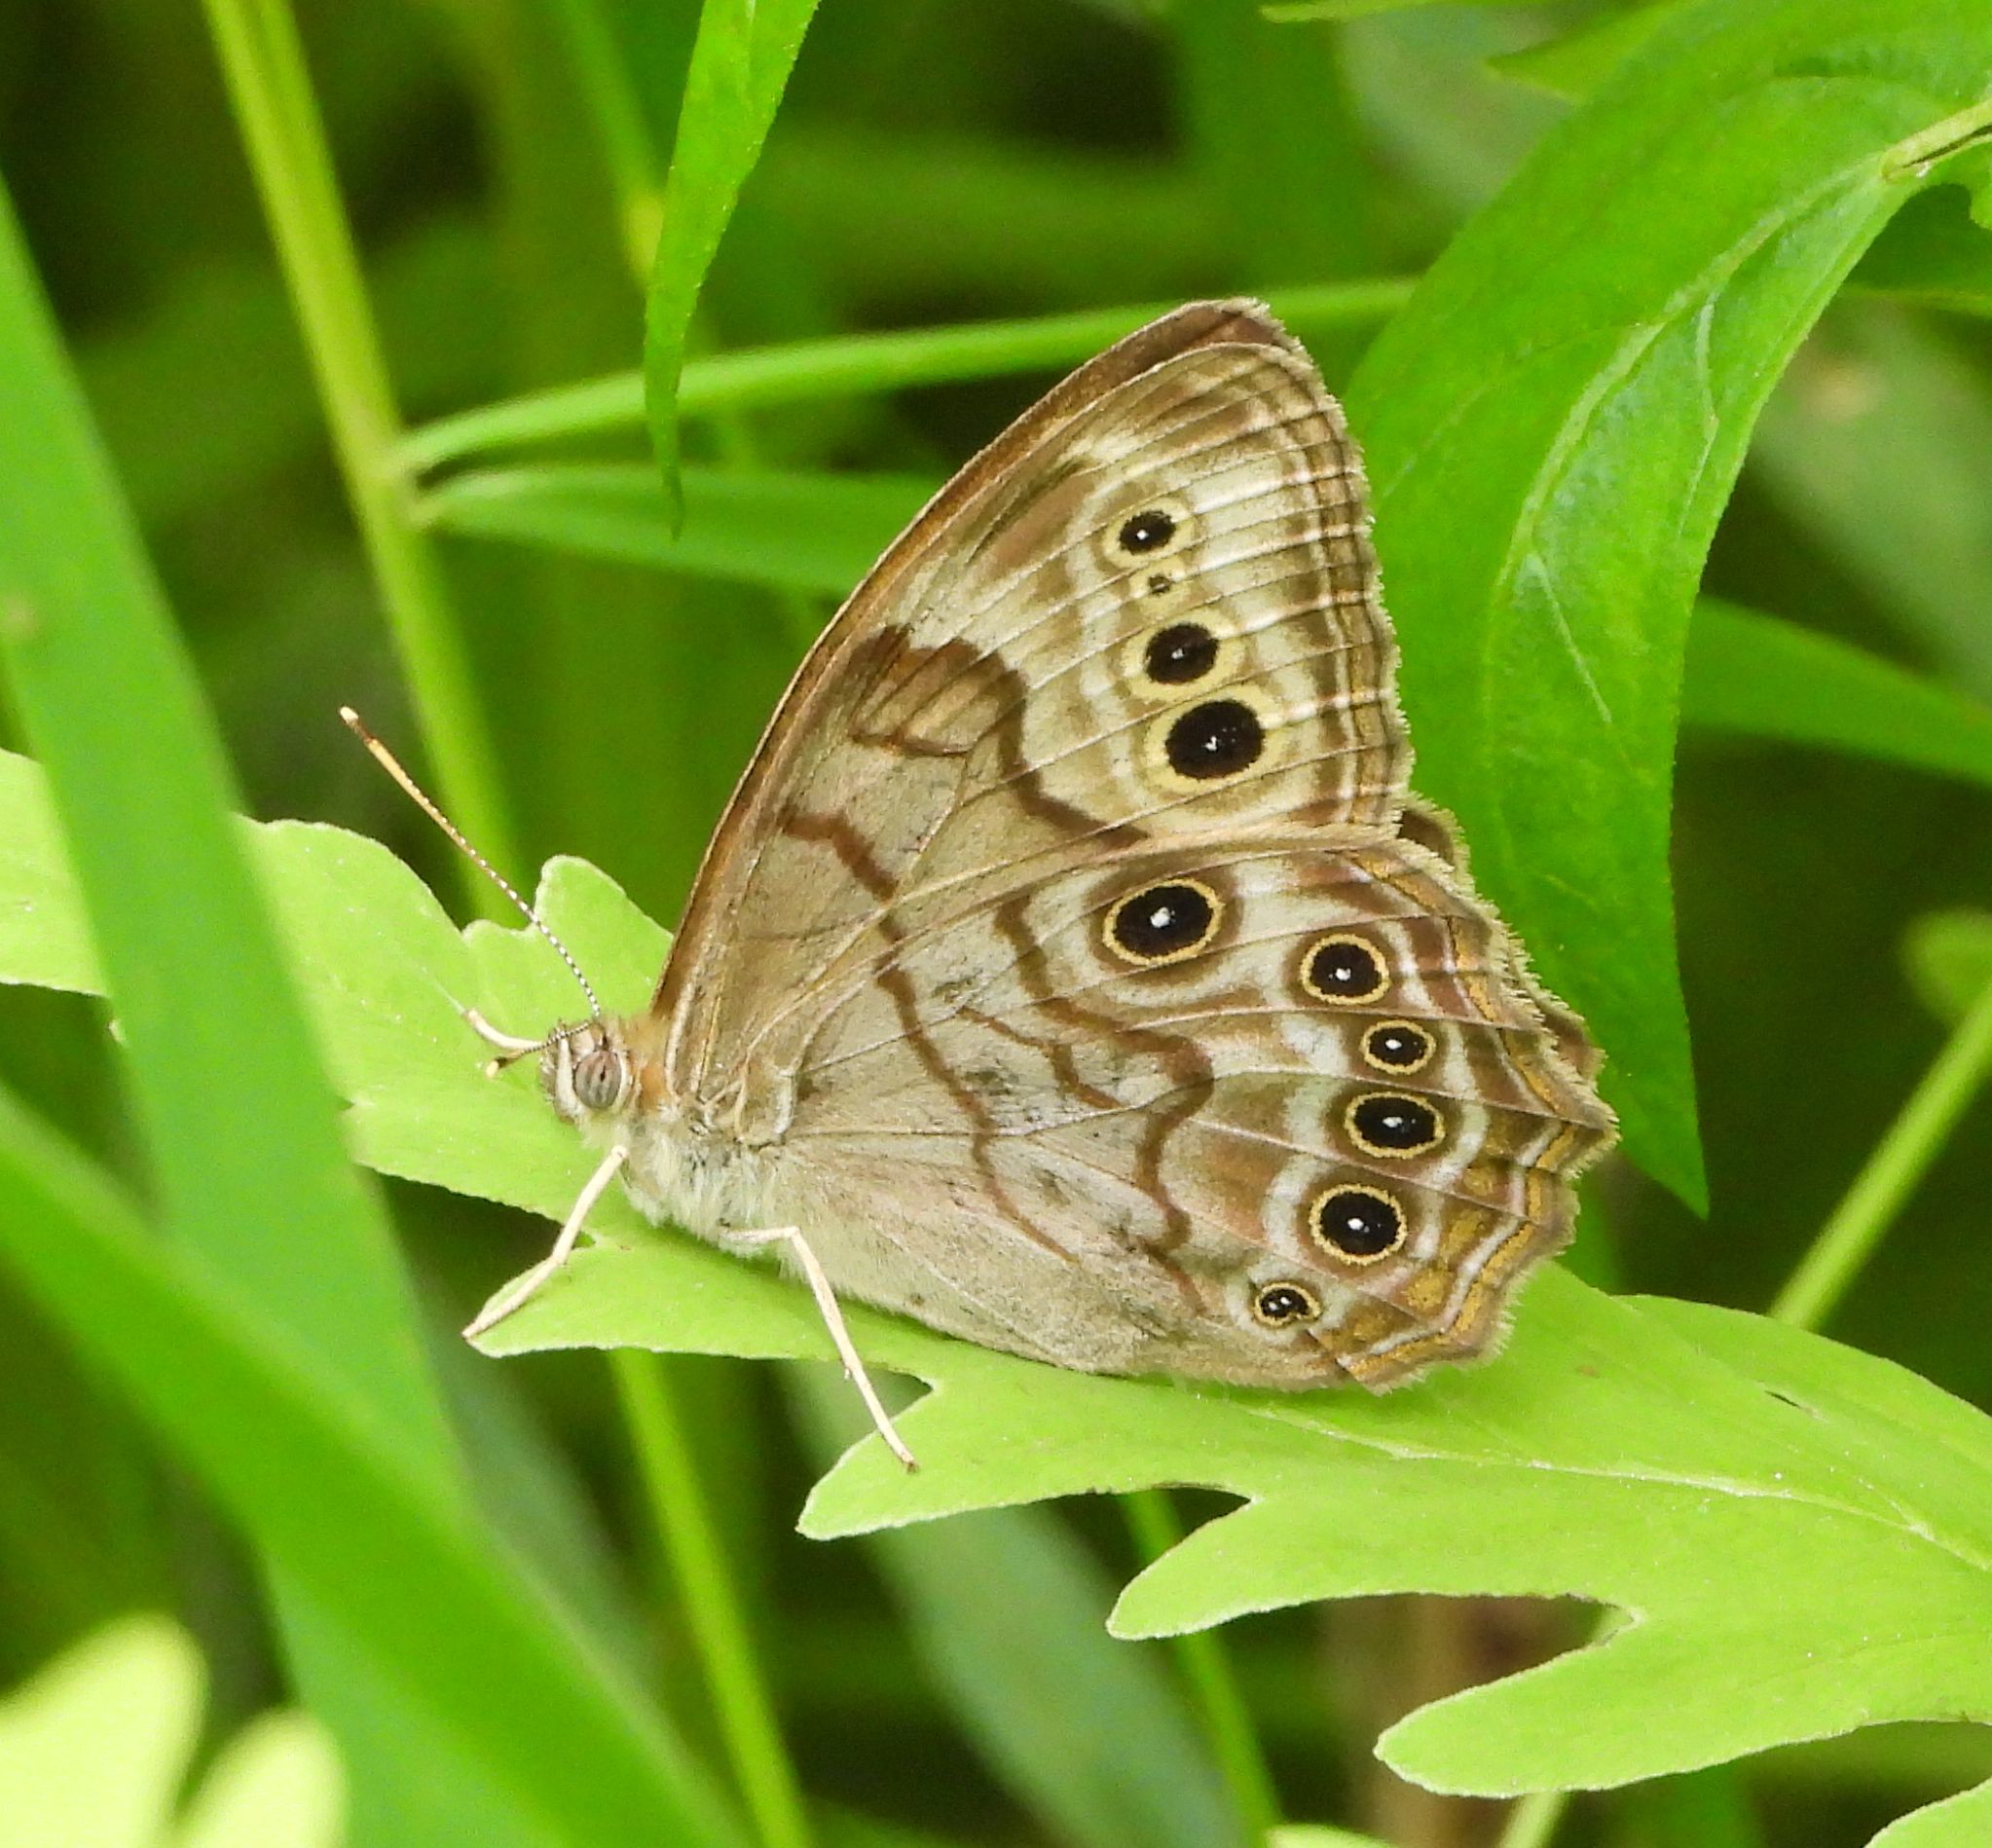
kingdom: Animalia
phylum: Arthropoda
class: Insecta
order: Lepidoptera
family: Nymphalidae
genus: Lethe
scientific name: Lethe anthedon
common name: Northern pearly-eye
